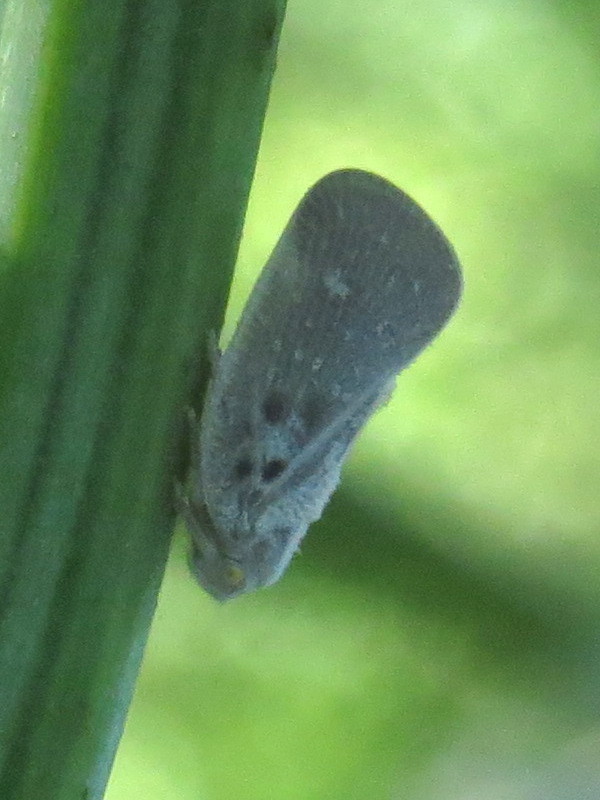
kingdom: Animalia
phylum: Arthropoda
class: Insecta
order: Hemiptera
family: Flatidae
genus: Metcalfa
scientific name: Metcalfa pruinosa
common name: Citrus flatid planthopper
